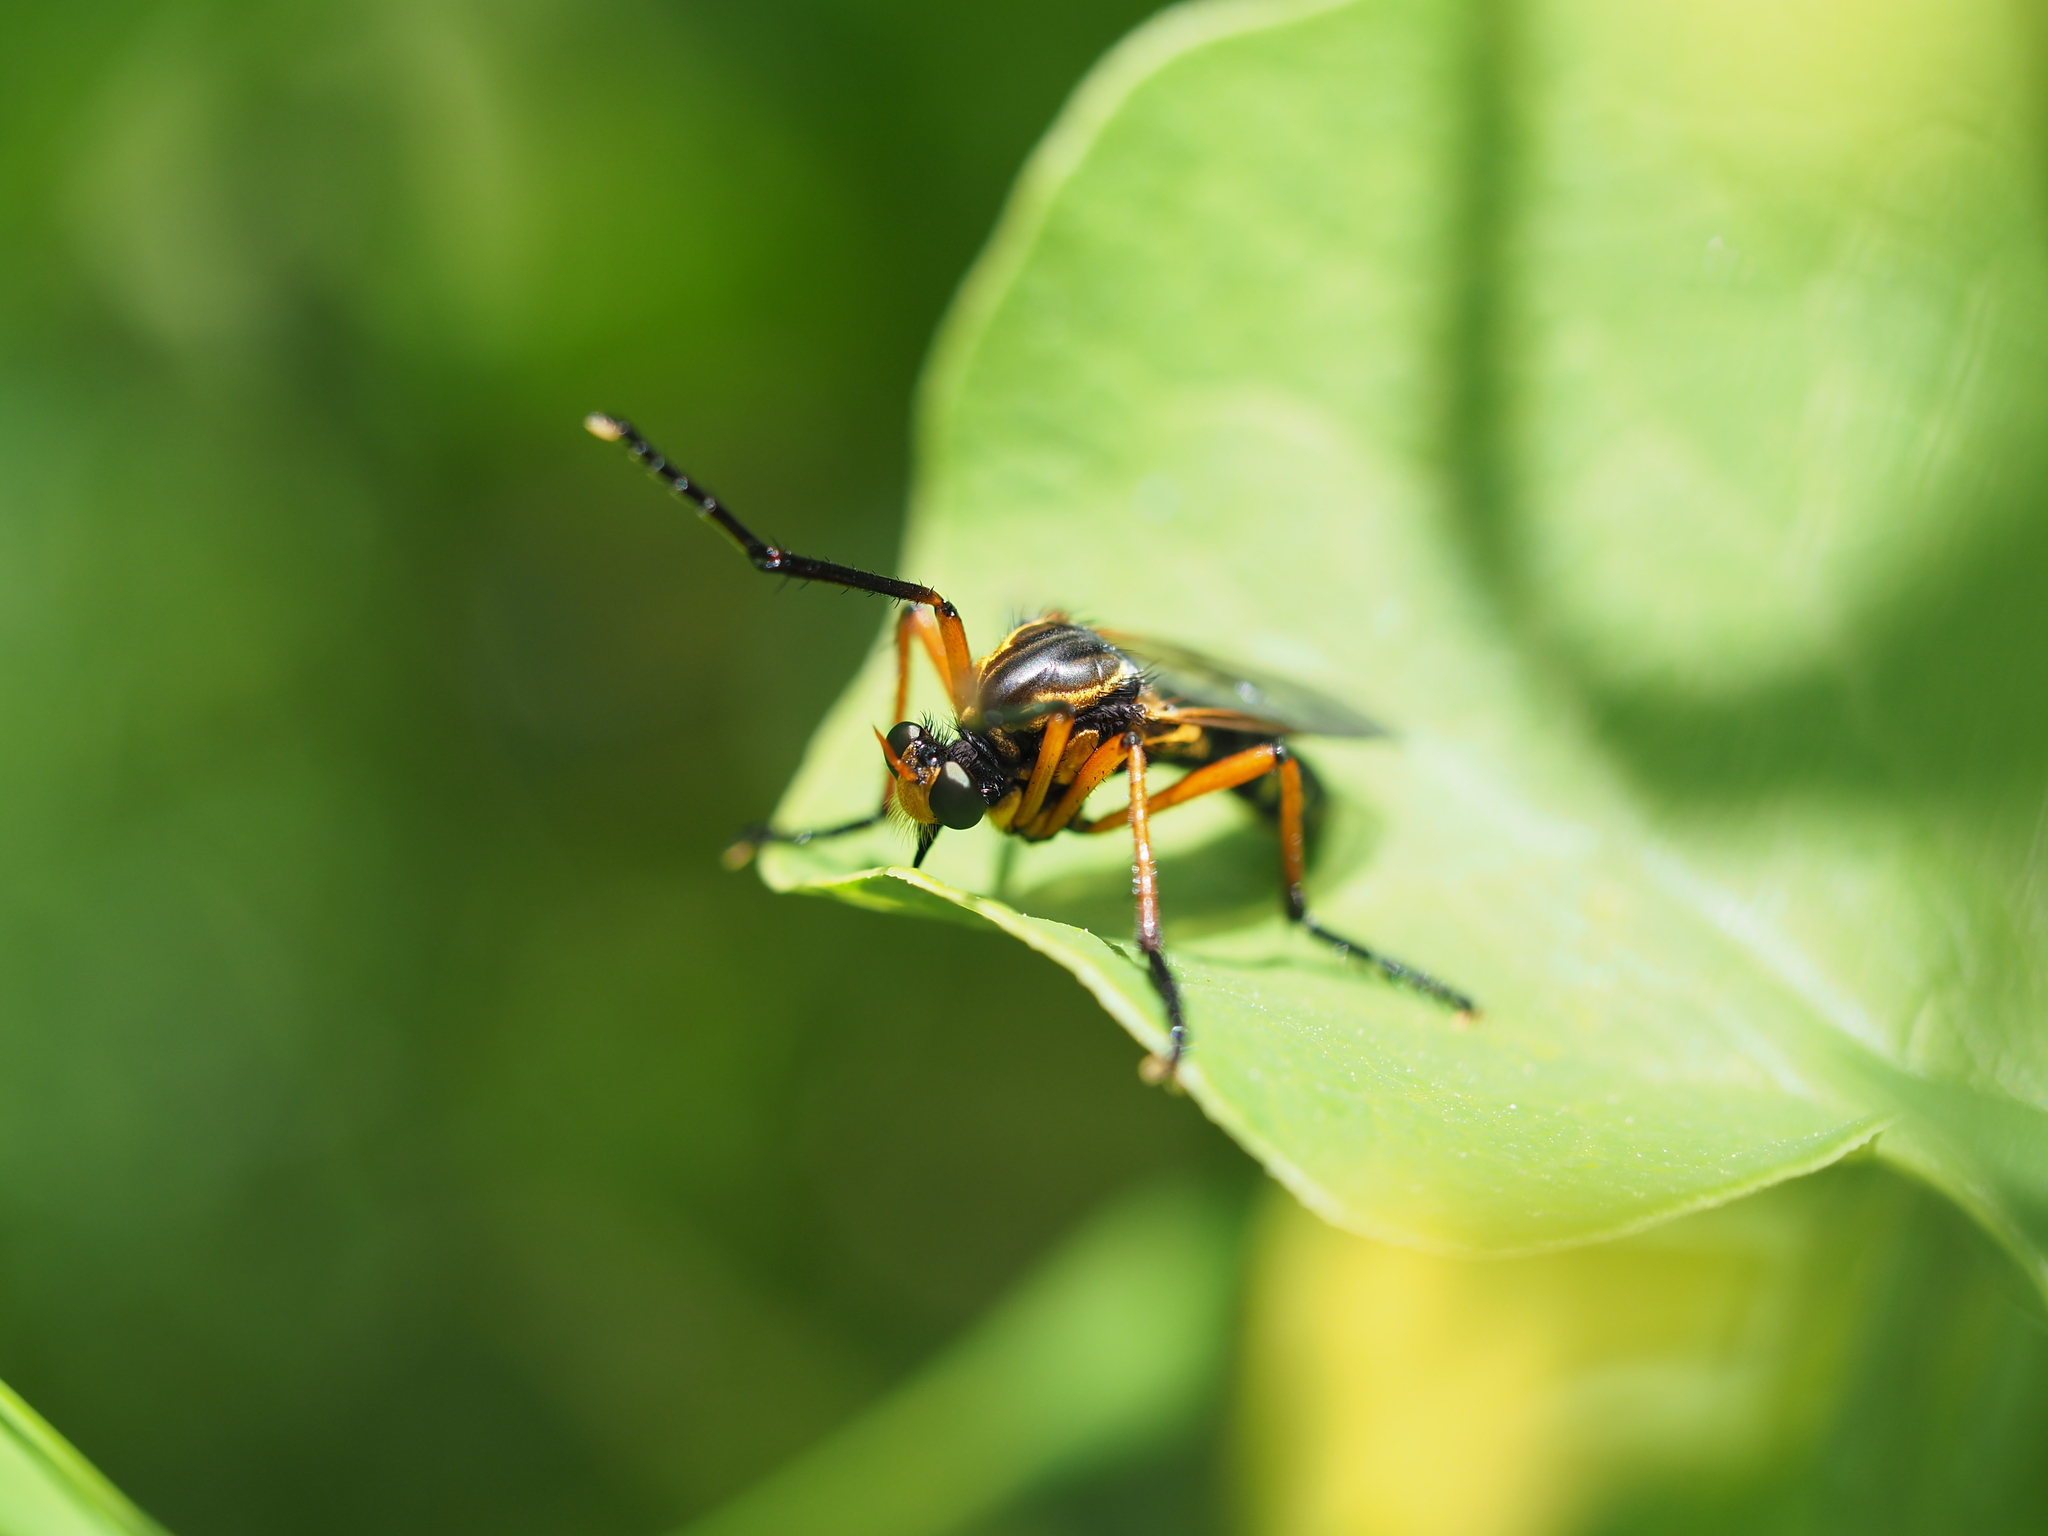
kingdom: Animalia
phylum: Arthropoda
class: Insecta
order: Diptera
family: Asilidae
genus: Molobratia
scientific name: Molobratia teutona
